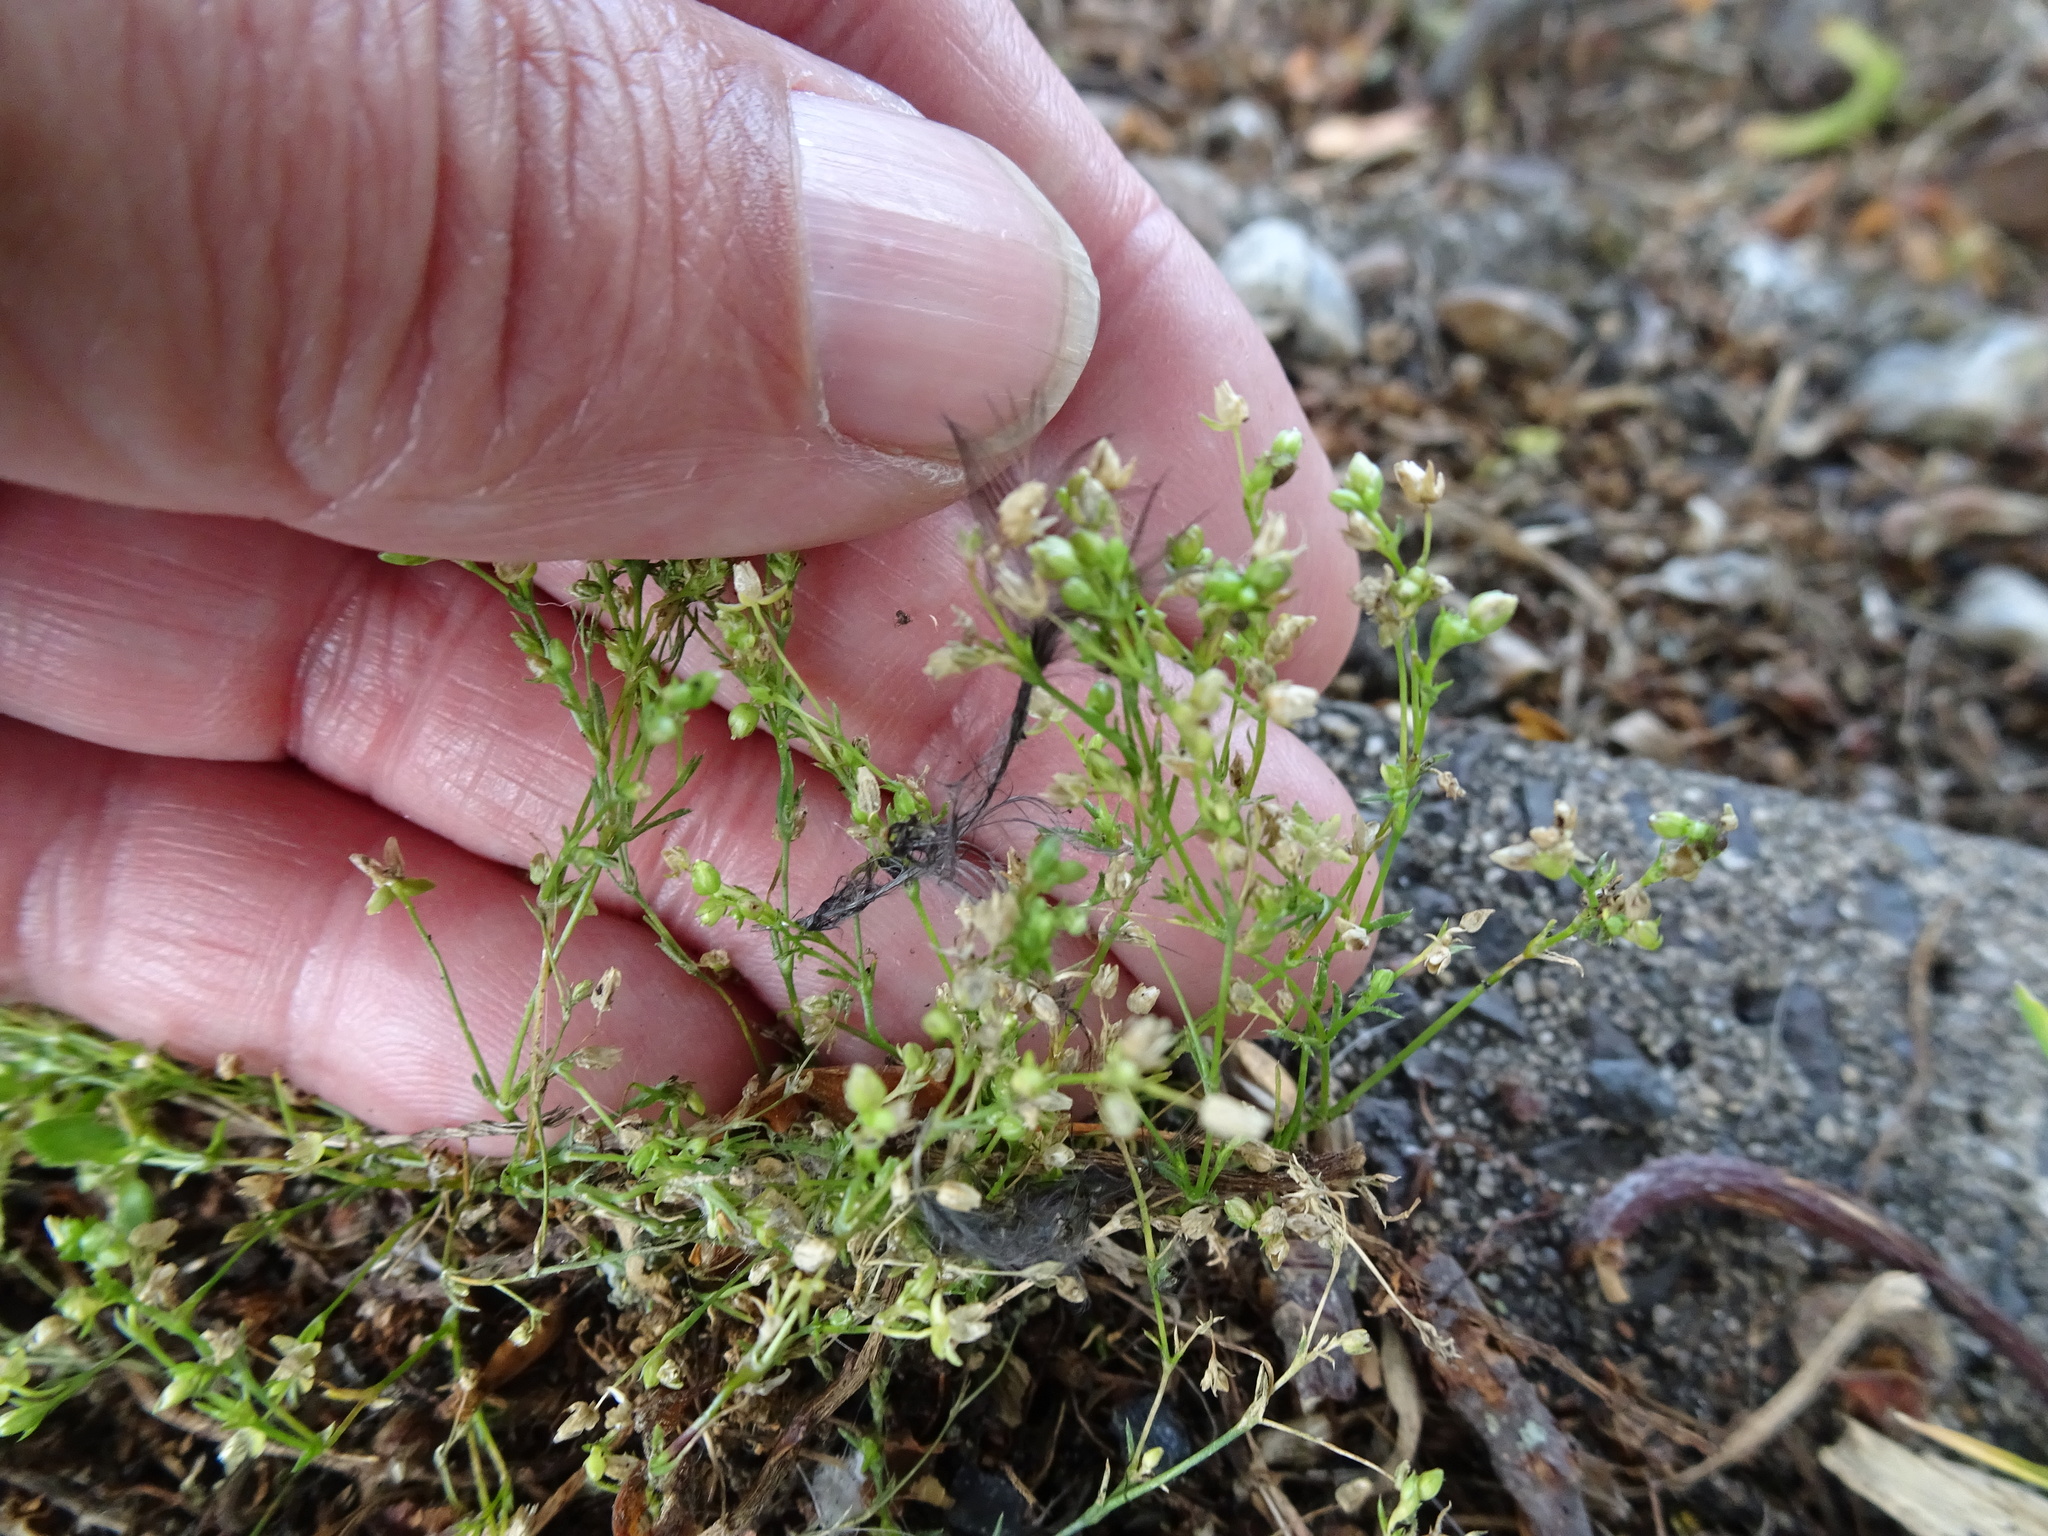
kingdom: Plantae
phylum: Tracheophyta
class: Magnoliopsida
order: Caryophyllales
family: Caryophyllaceae
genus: Sagina
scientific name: Sagina procumbens
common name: Procumbent pearlwort
